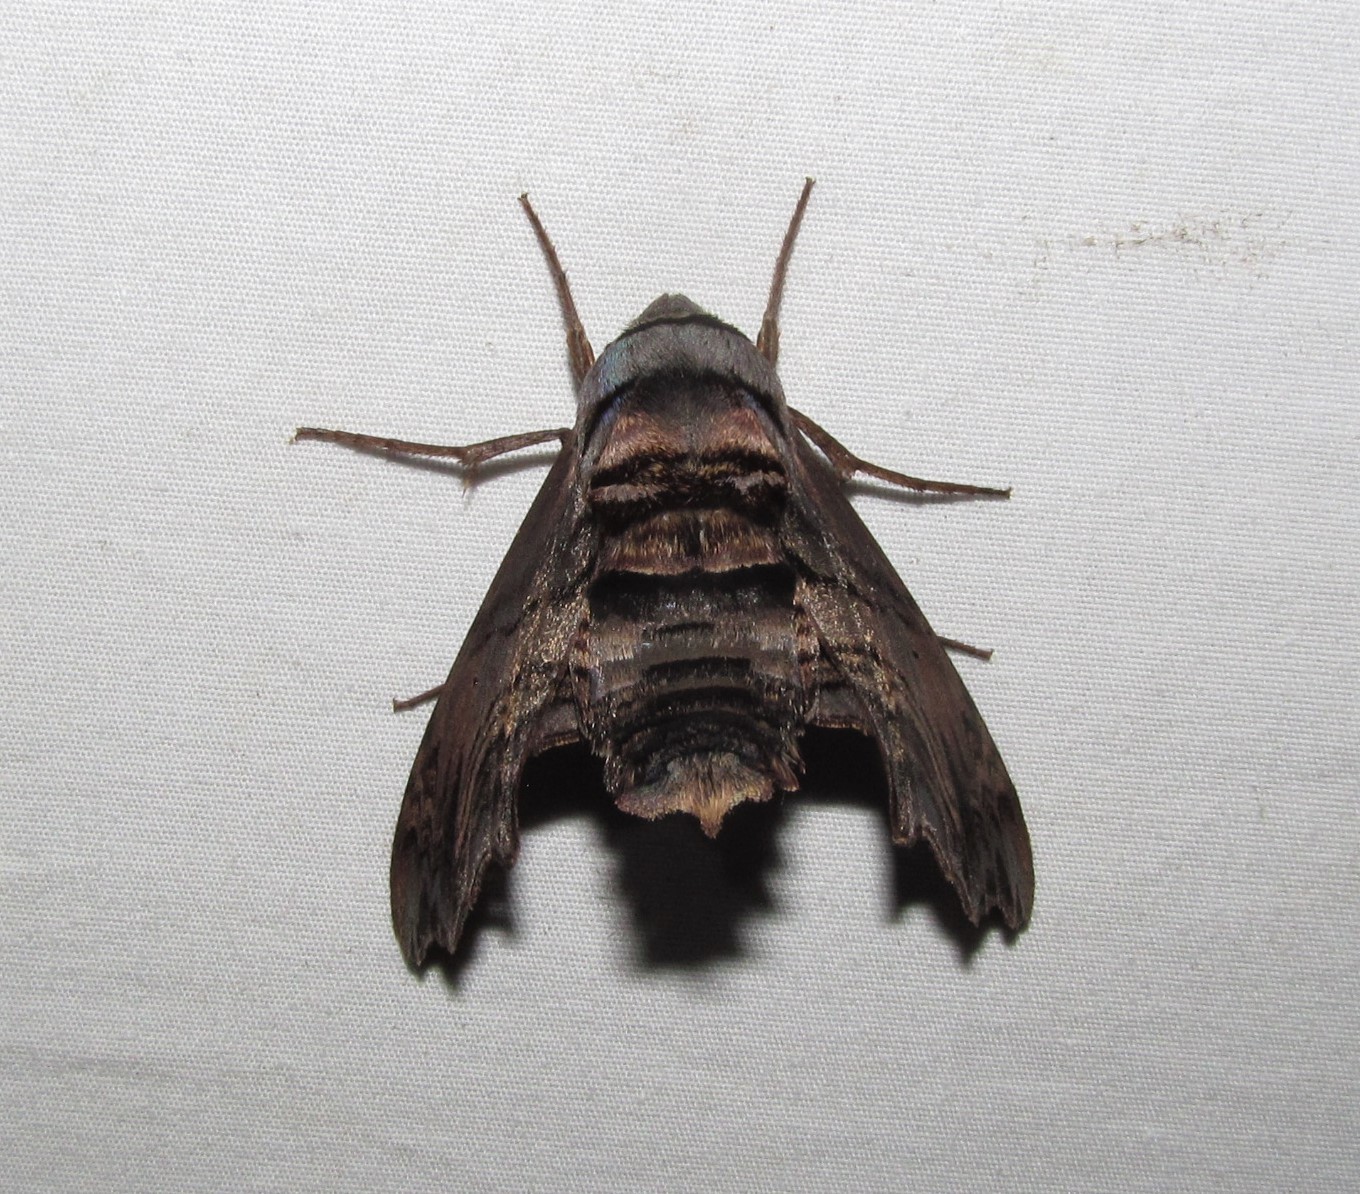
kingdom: Animalia
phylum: Arthropoda
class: Insecta
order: Lepidoptera
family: Sphingidae
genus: Sphecodina
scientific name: Sphecodina abbottii
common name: Abbott's sphinx
